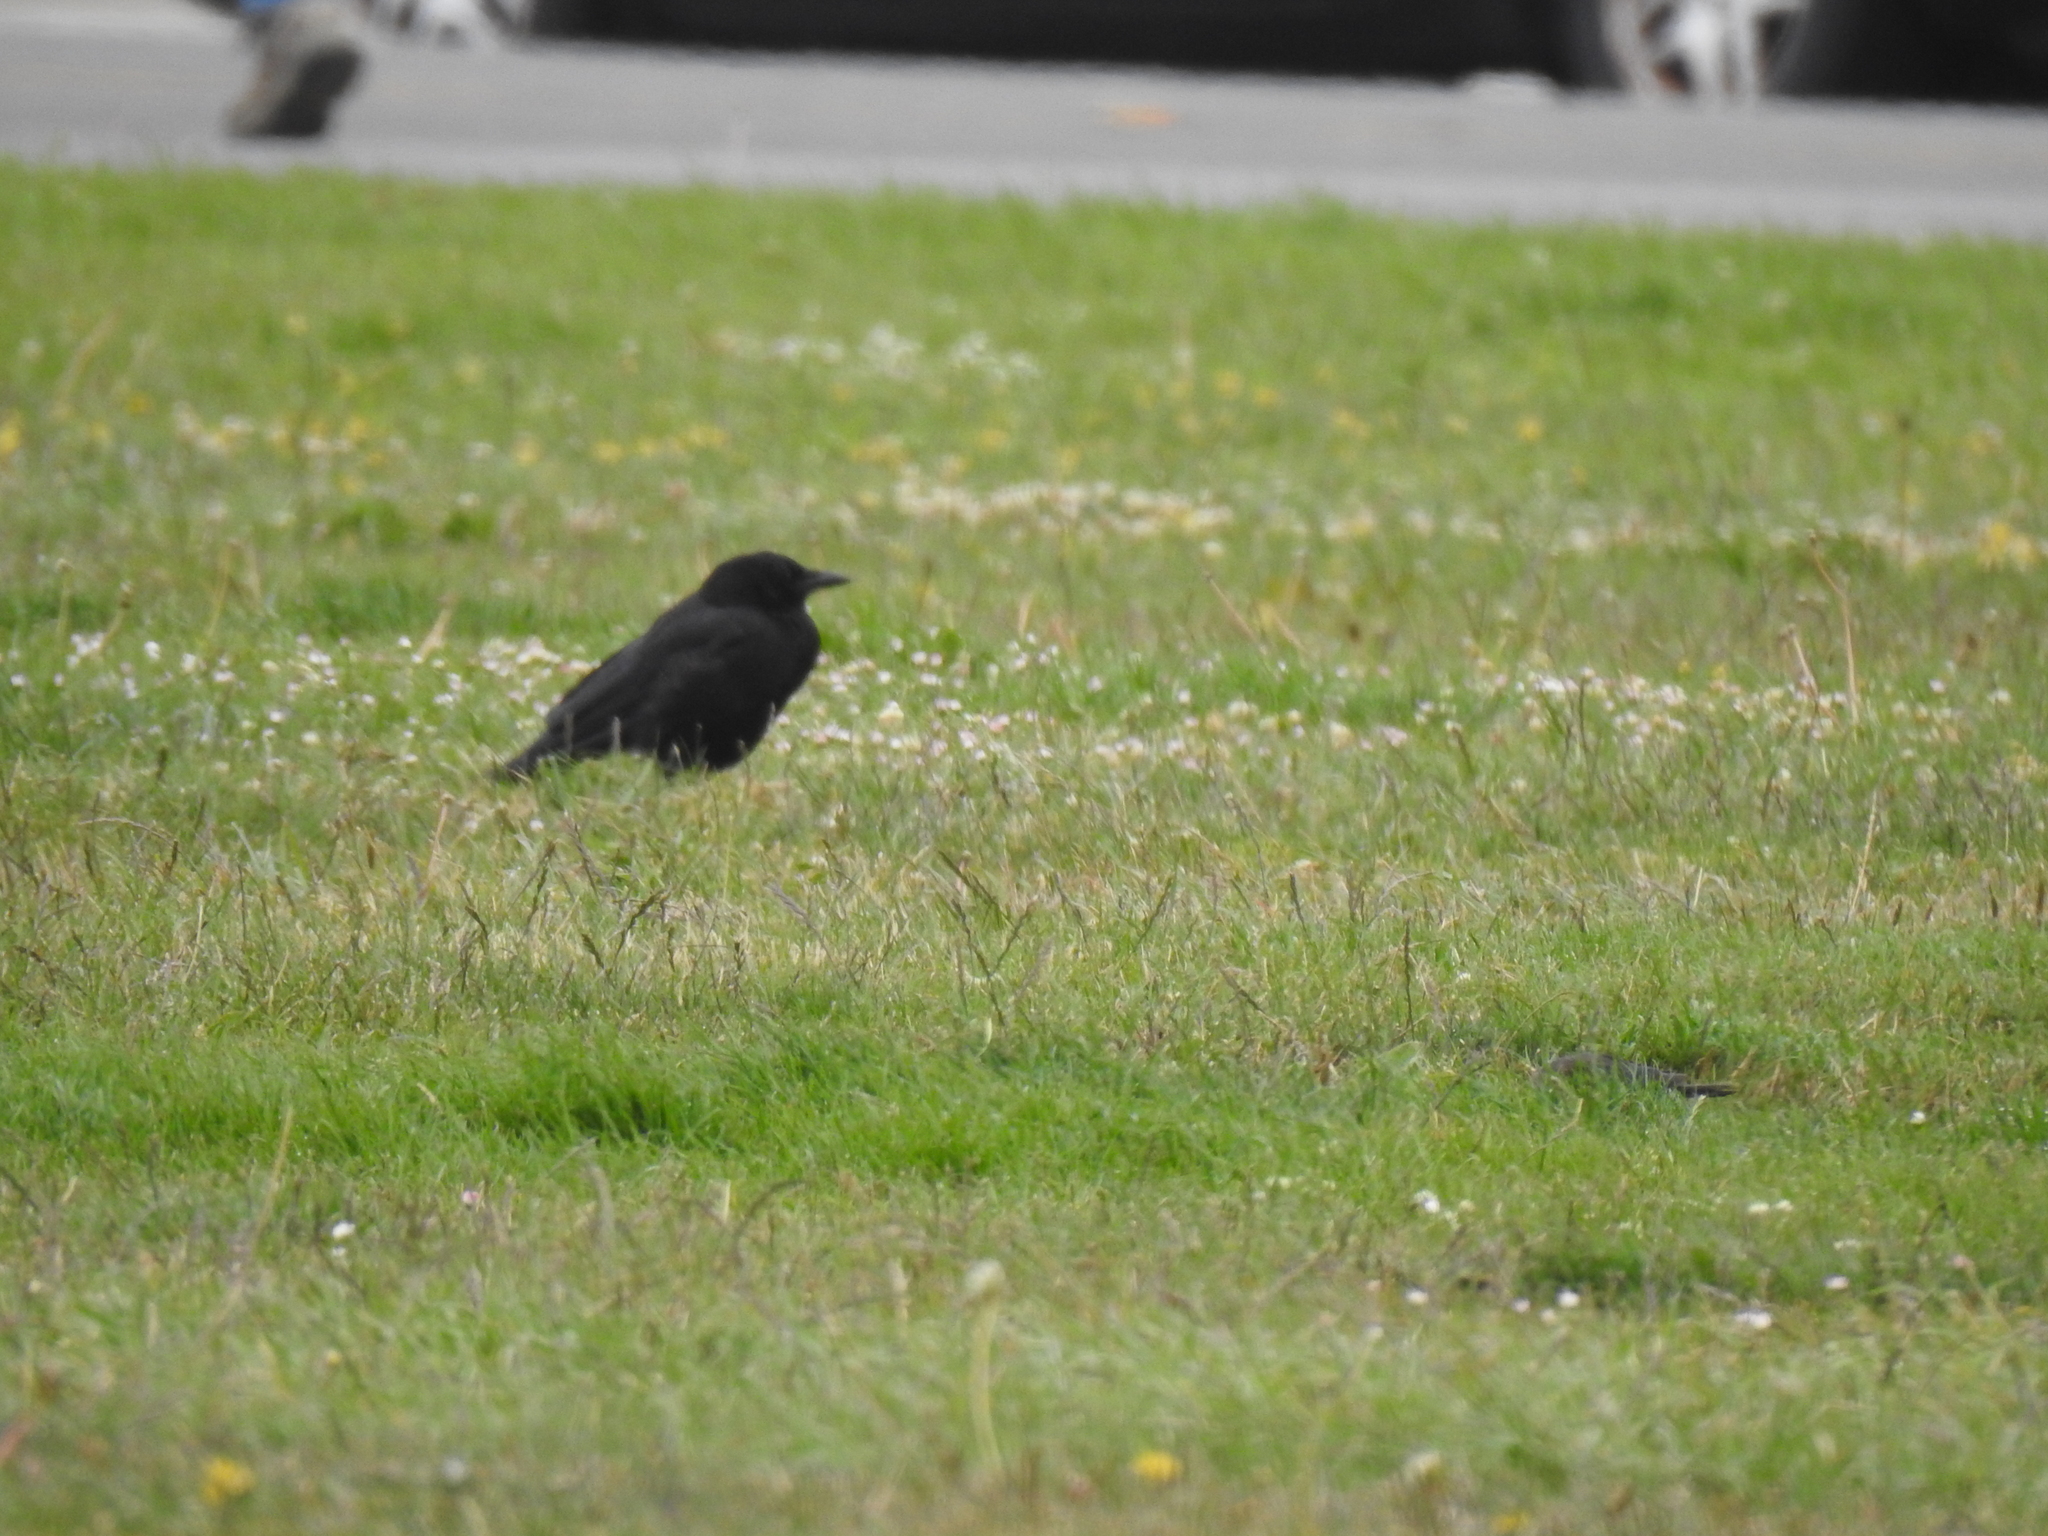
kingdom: Animalia
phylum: Chordata
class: Aves
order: Passeriformes
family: Corvidae
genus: Corvus
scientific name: Corvus brachyrhynchos
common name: American crow
